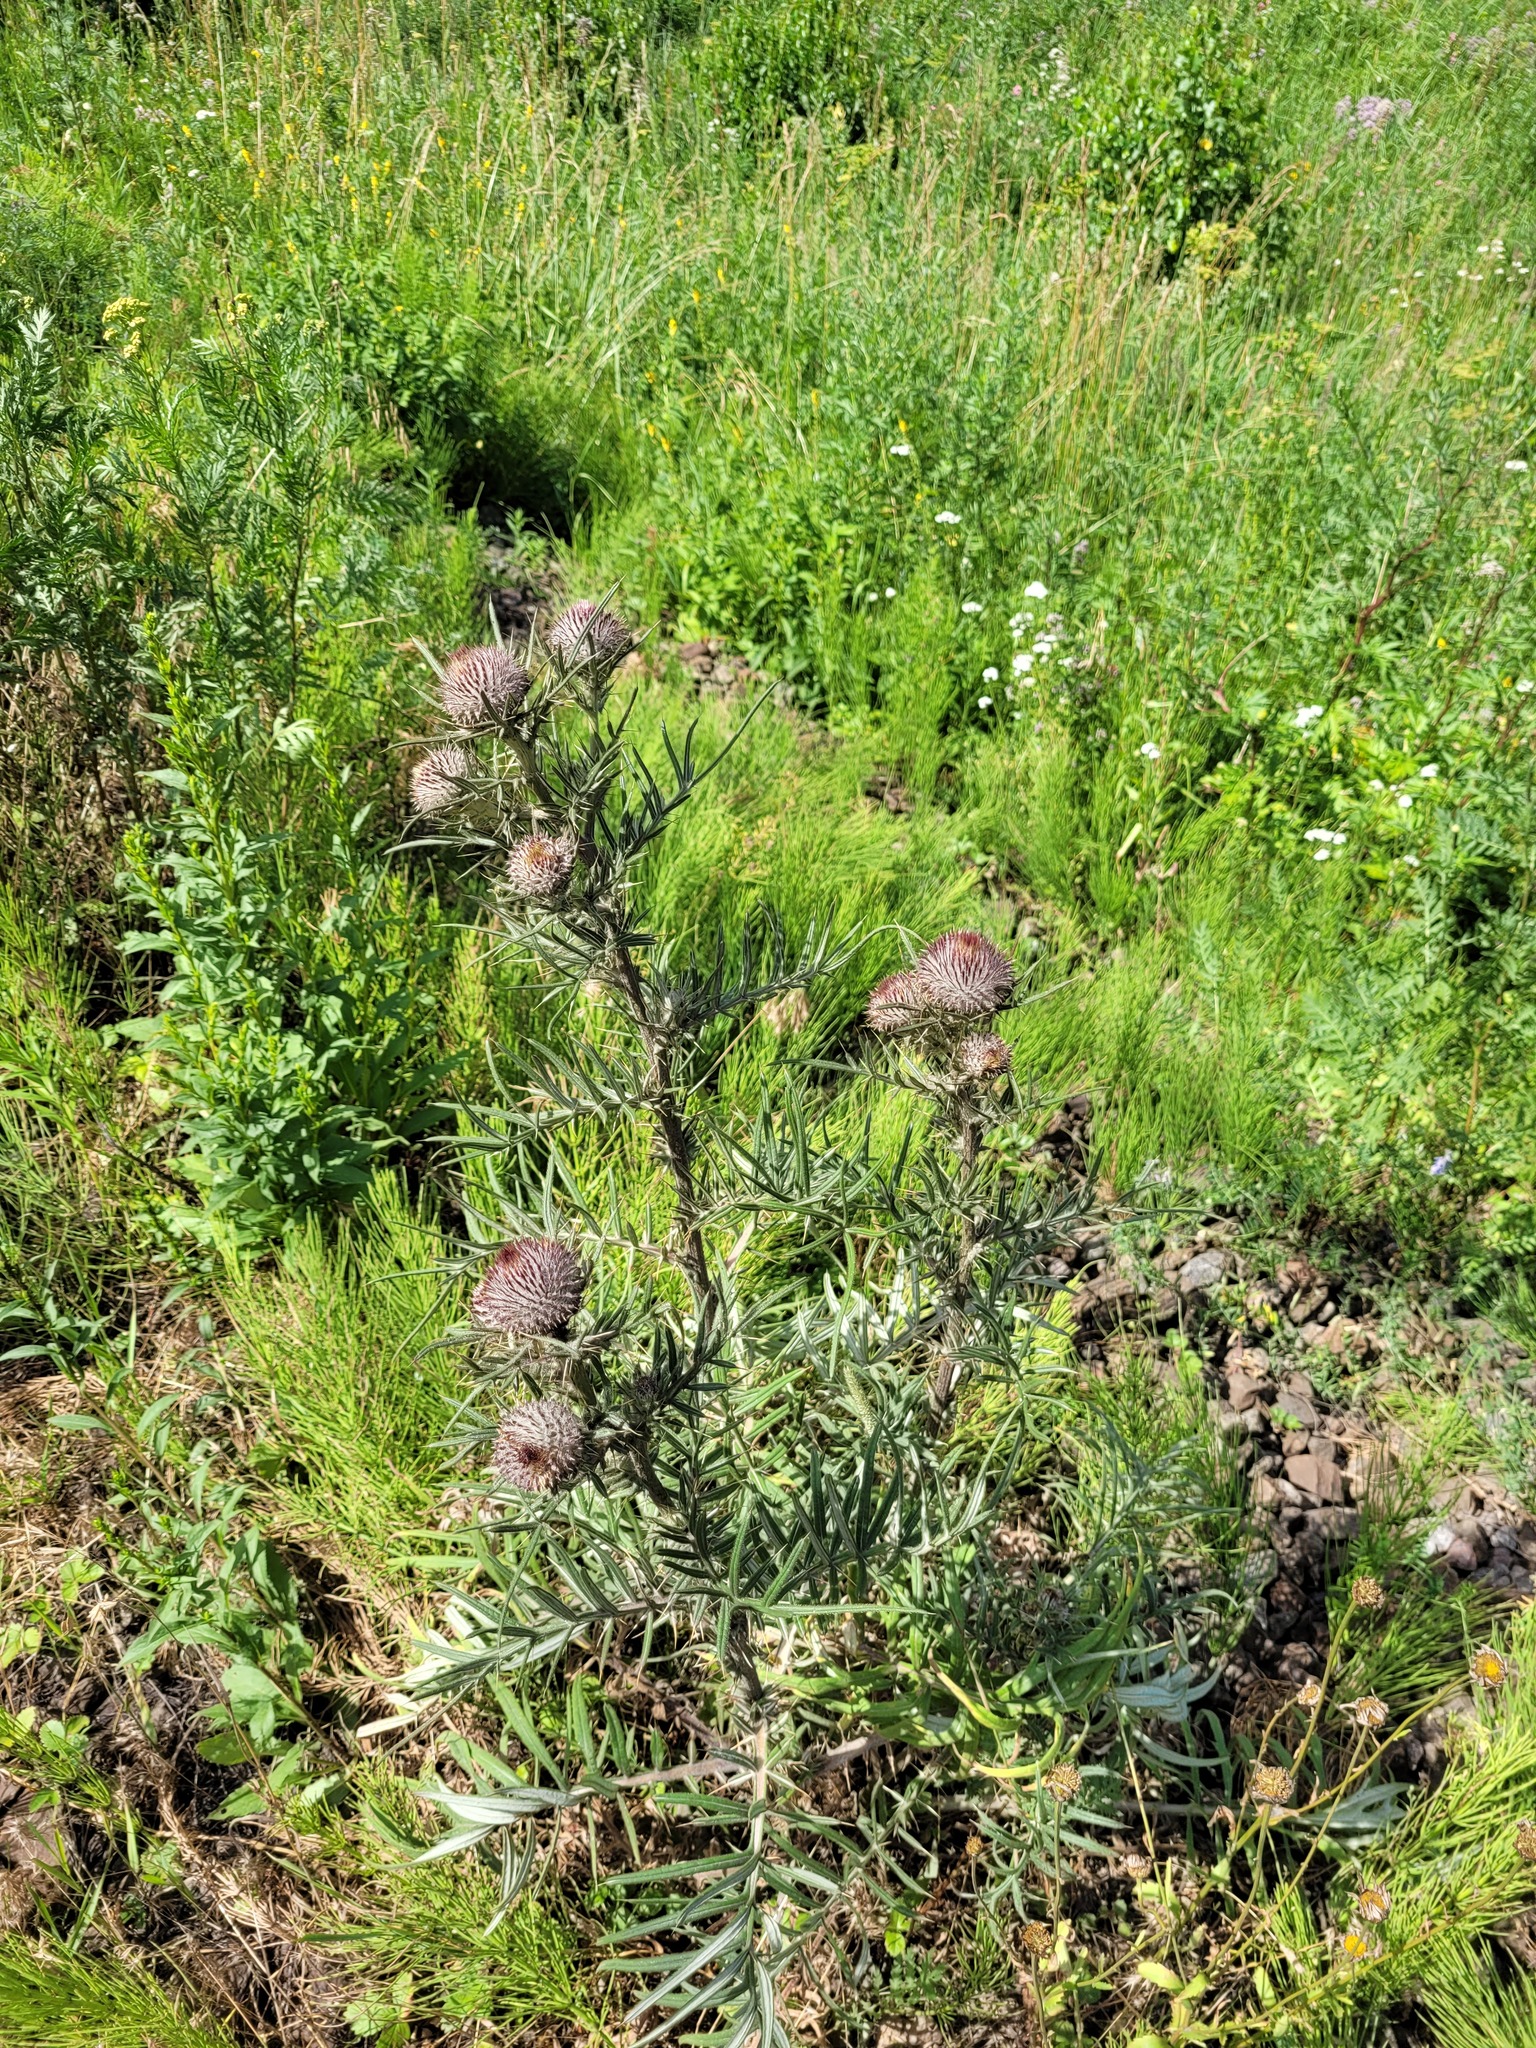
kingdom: Plantae
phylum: Tracheophyta
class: Magnoliopsida
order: Asterales
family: Asteraceae
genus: Lophiolepis
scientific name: Lophiolepis decussata
